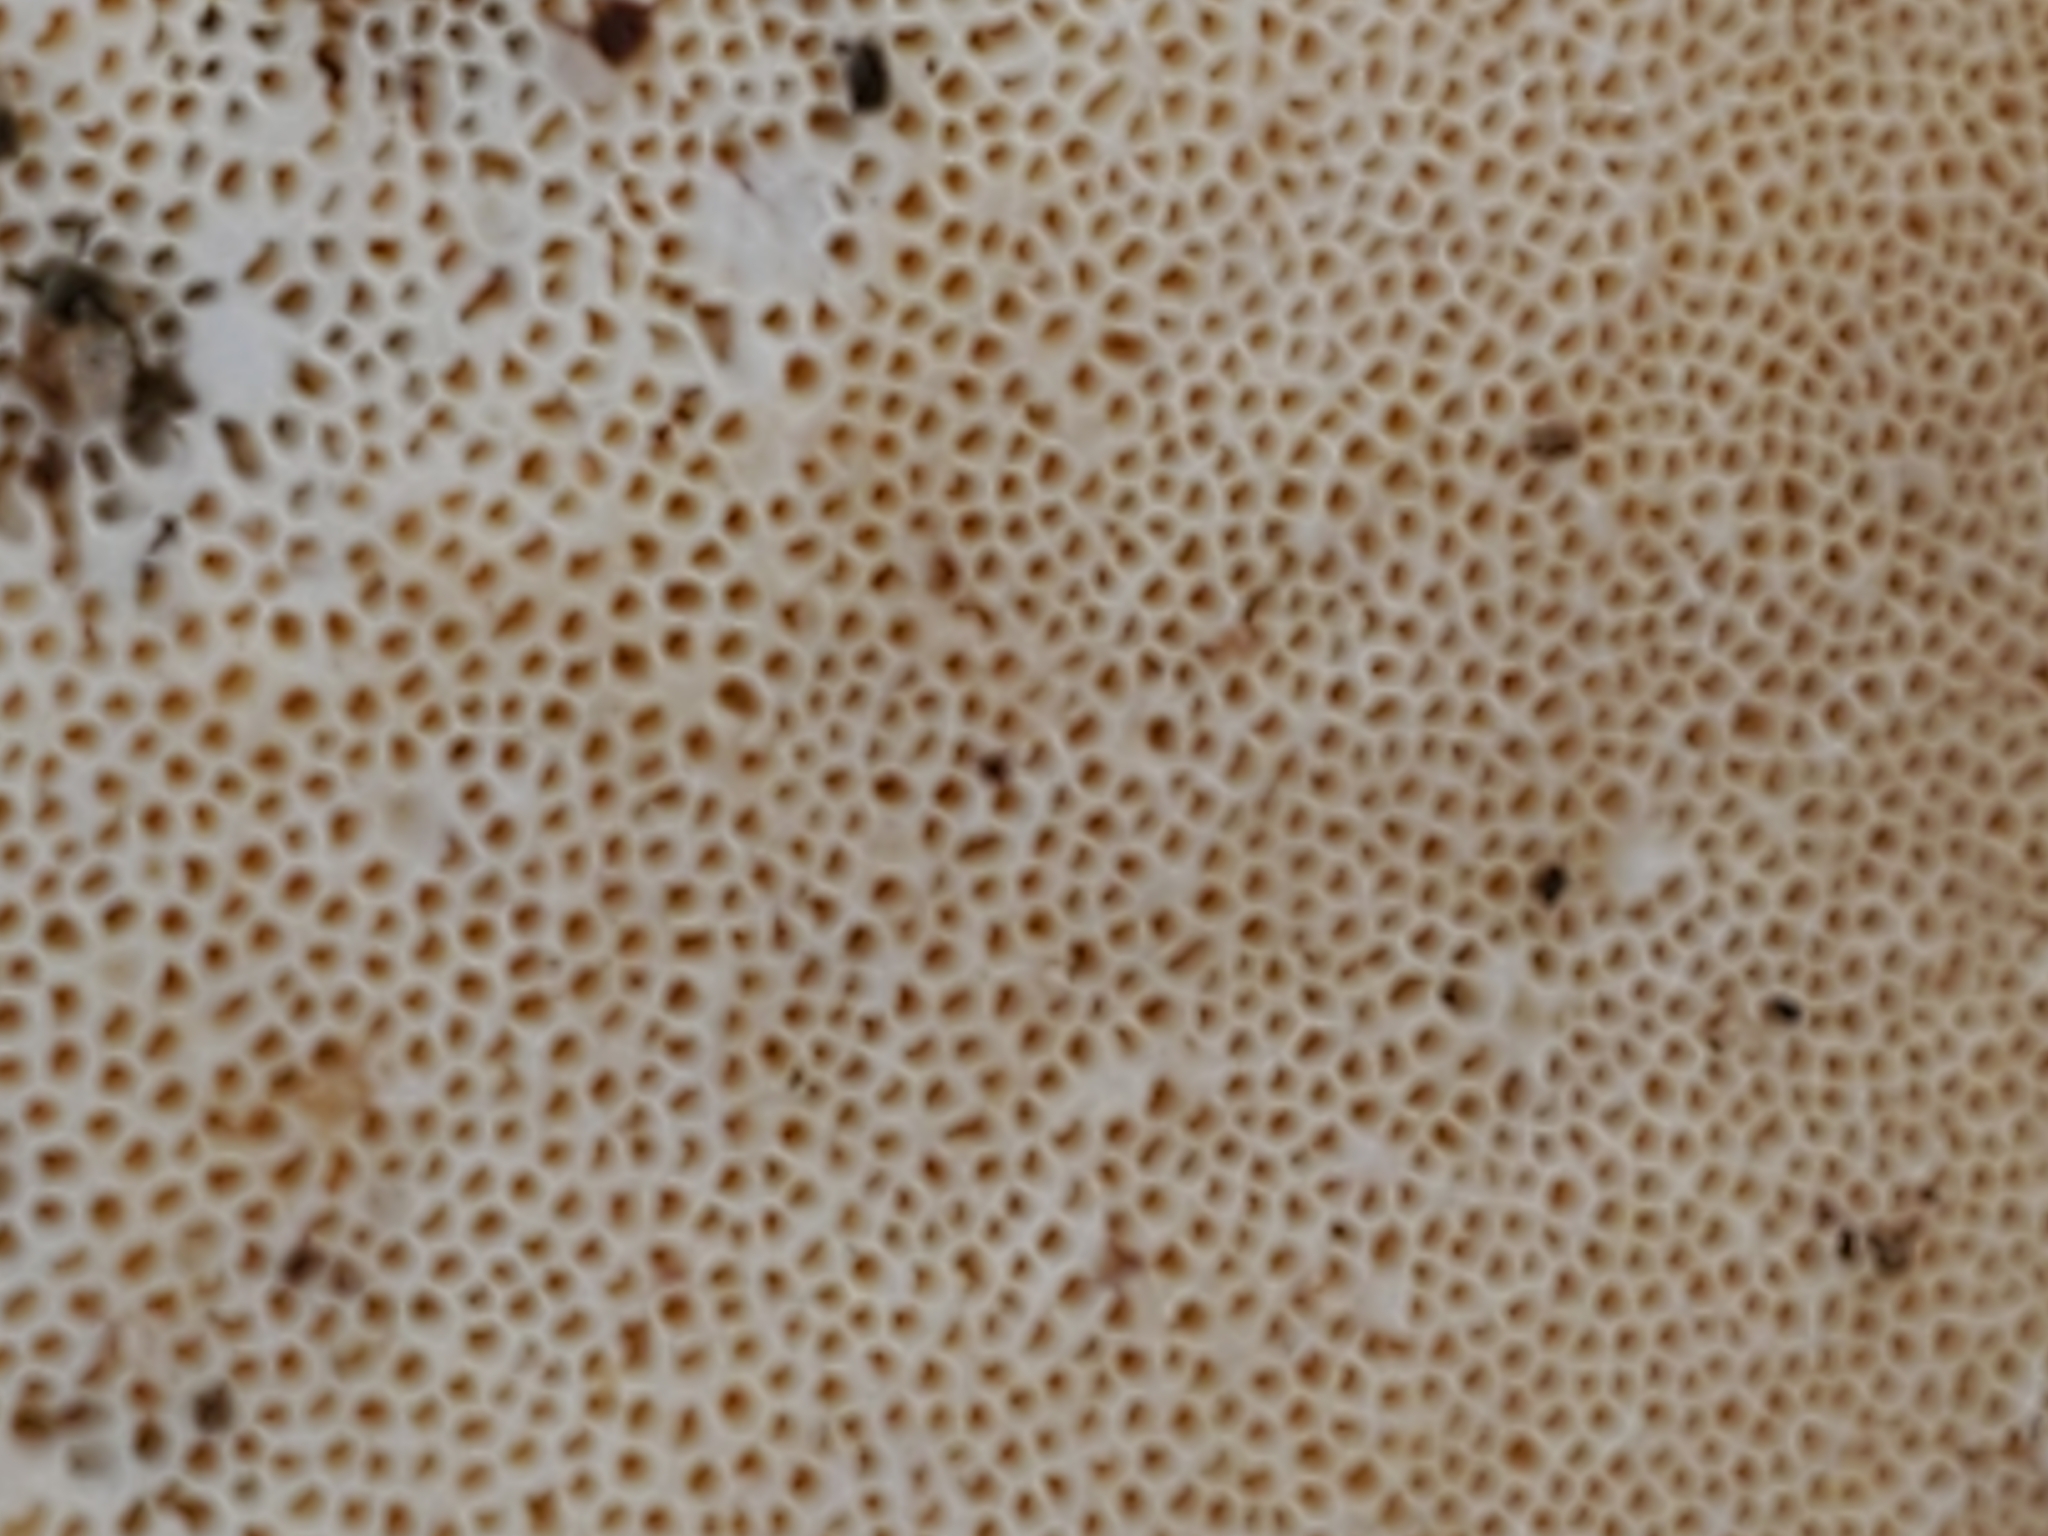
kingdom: Fungi
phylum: Basidiomycota
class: Agaricomycetes
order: Polyporales
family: Polyporaceae
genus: Trametes
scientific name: Trametes versicolor
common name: Turkeytail
